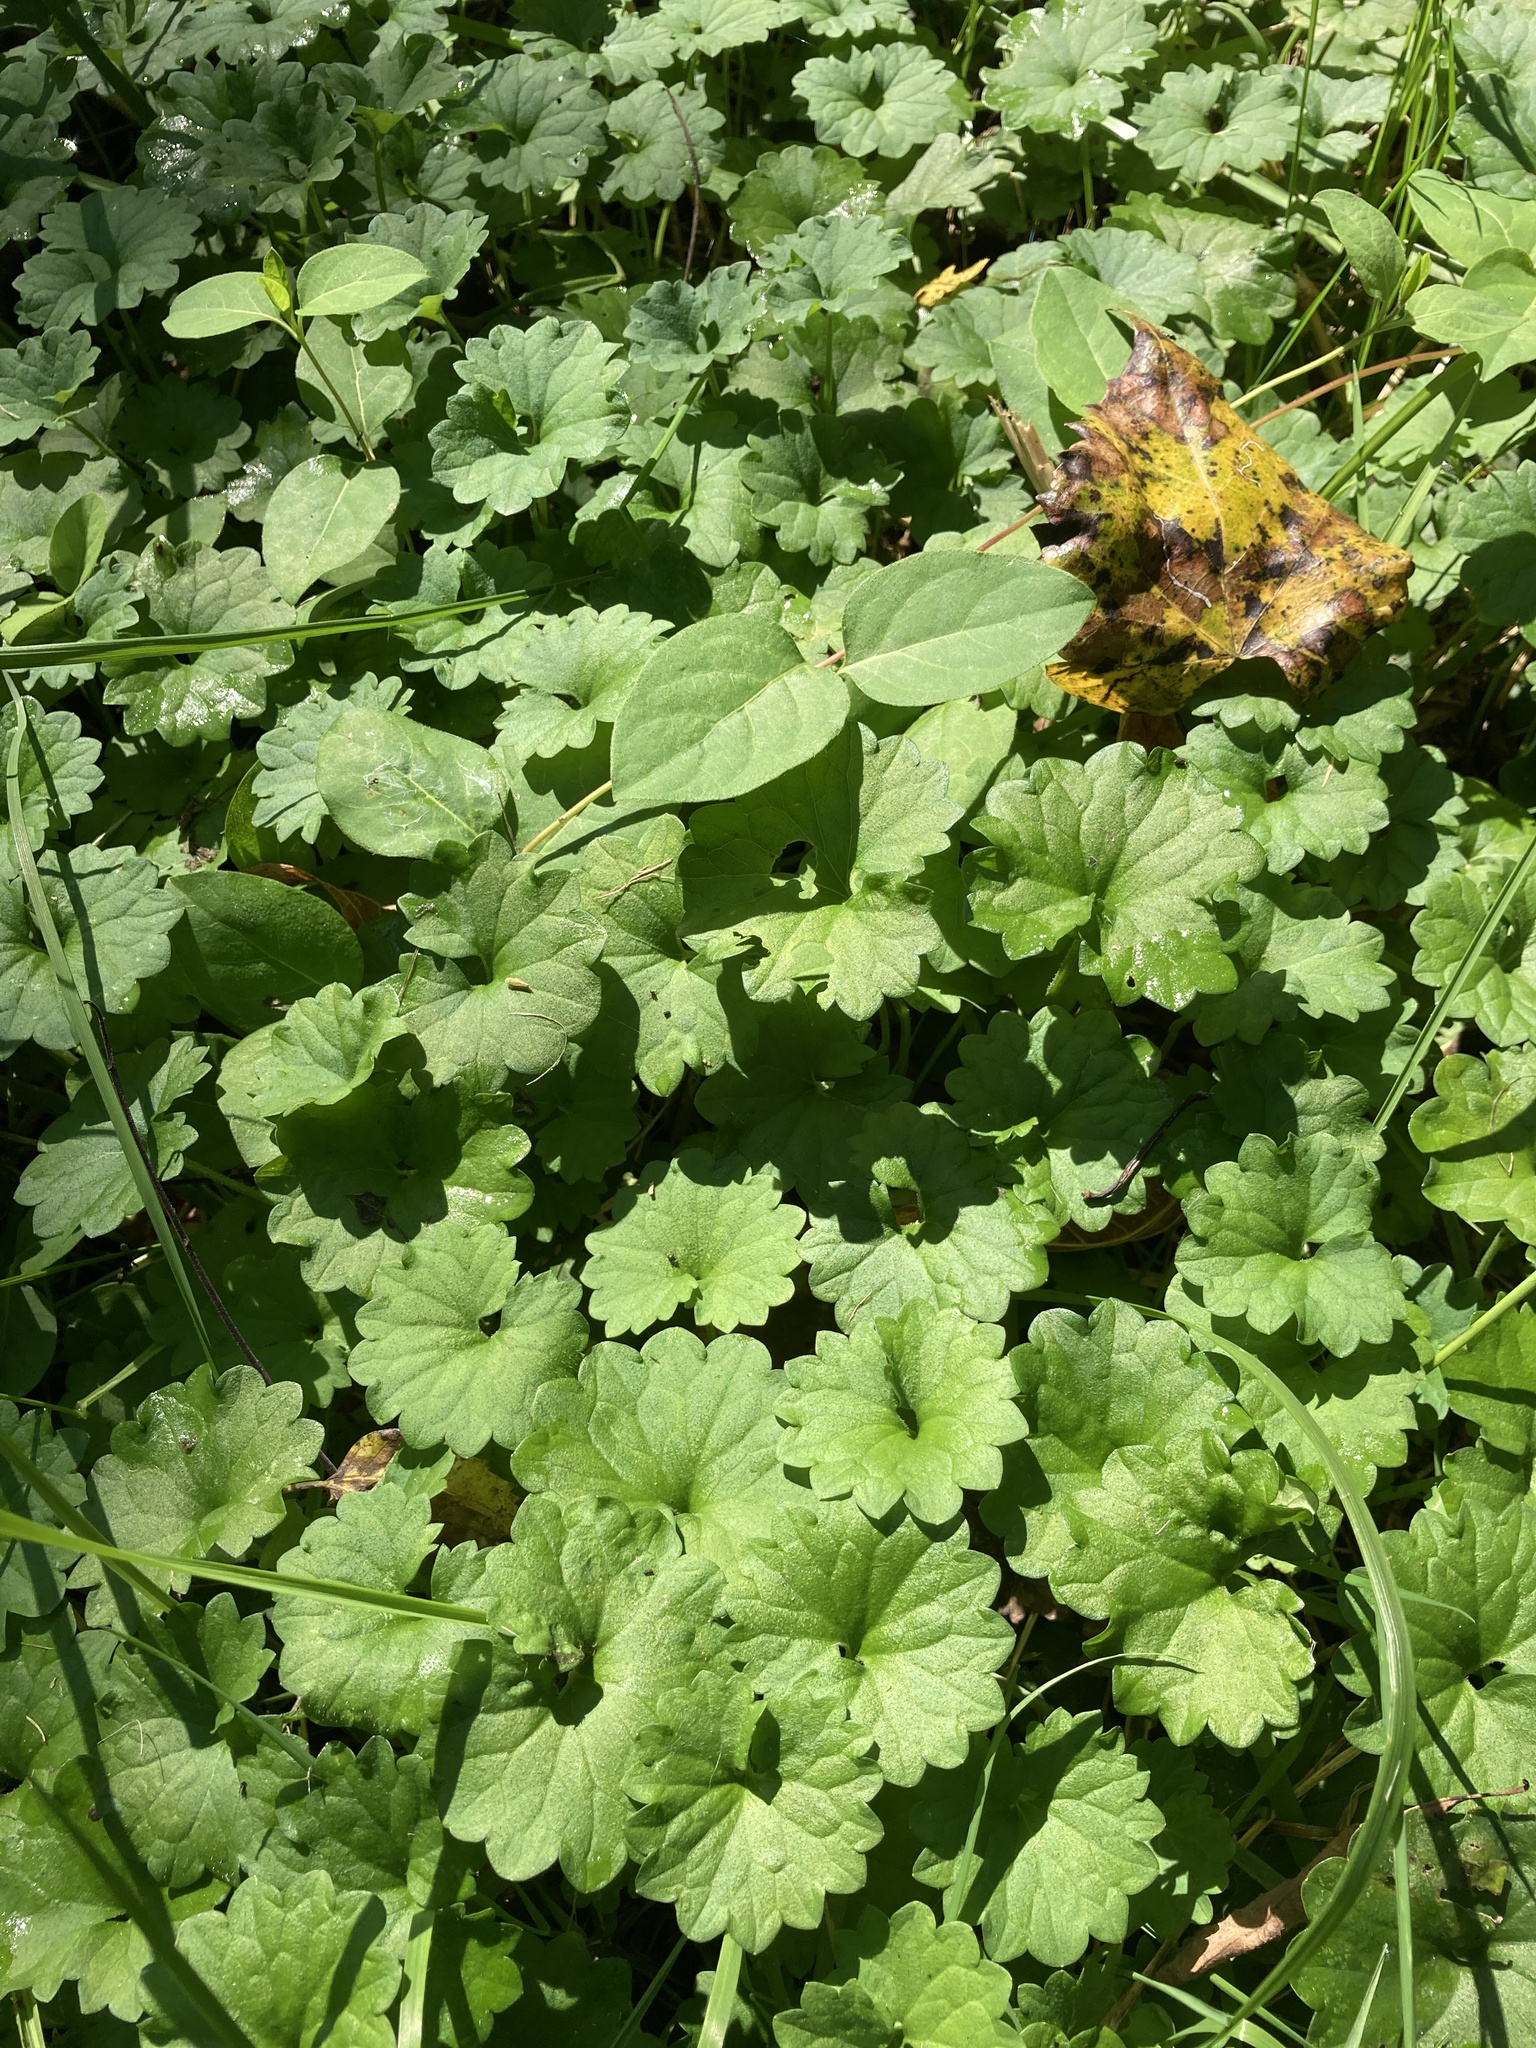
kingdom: Plantae
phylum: Tracheophyta
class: Magnoliopsida
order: Lamiales
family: Lamiaceae
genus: Glechoma
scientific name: Glechoma hederacea
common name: Ground ivy
